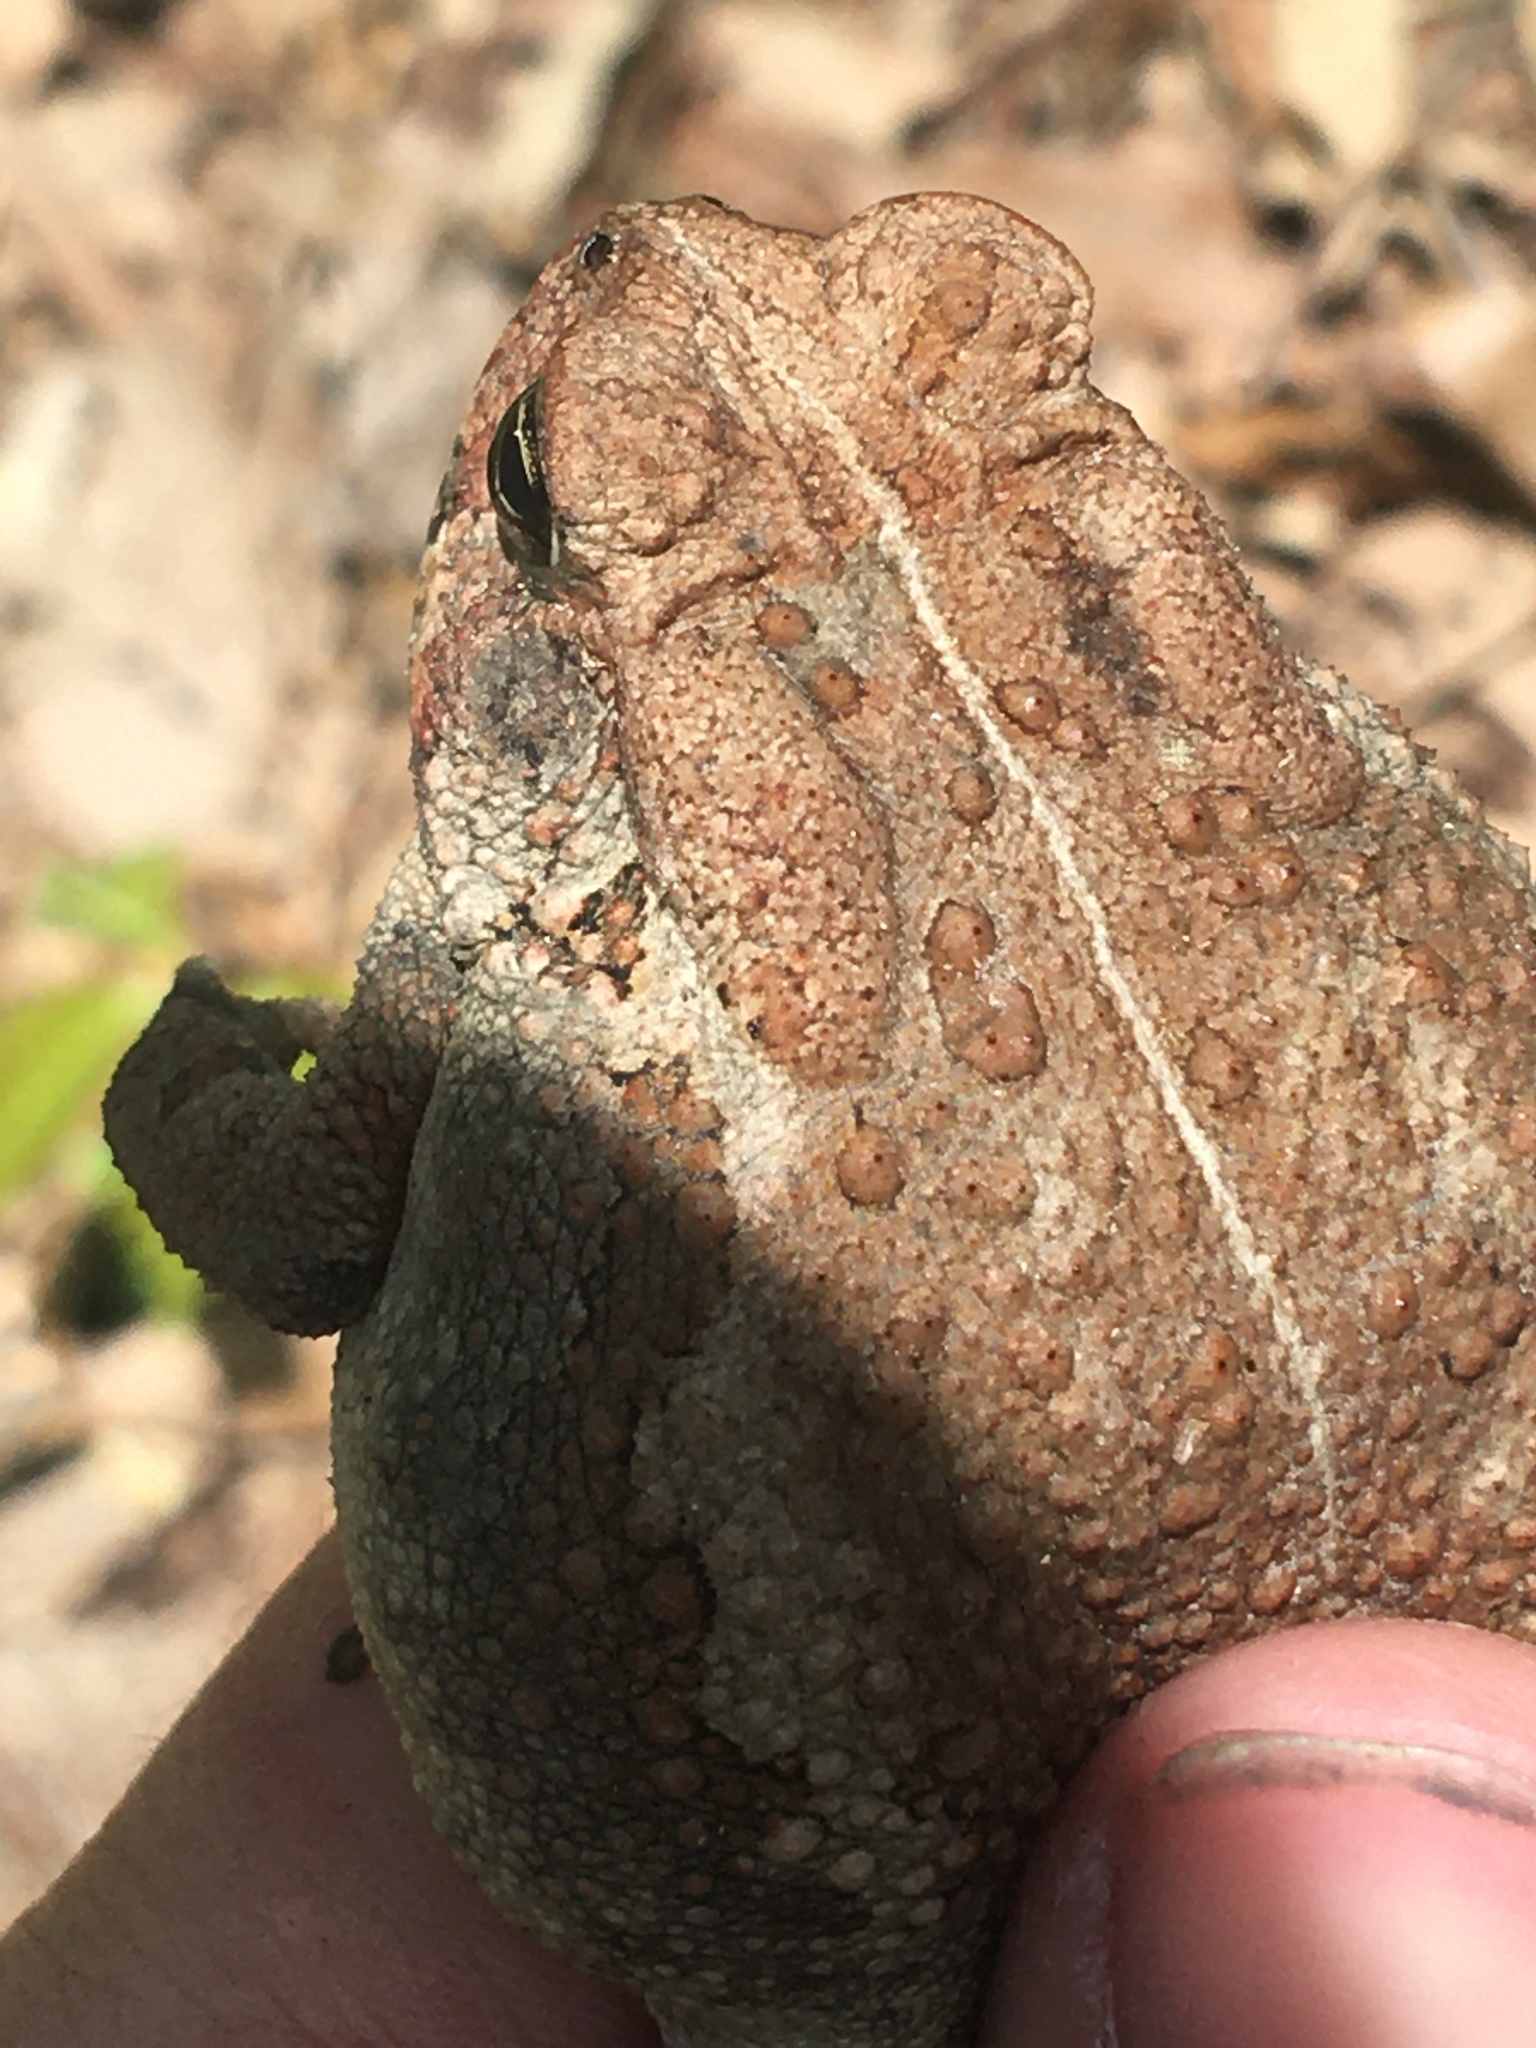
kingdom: Animalia
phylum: Chordata
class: Amphibia
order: Anura
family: Bufonidae
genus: Anaxyrus
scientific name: Anaxyrus americanus
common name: American toad
